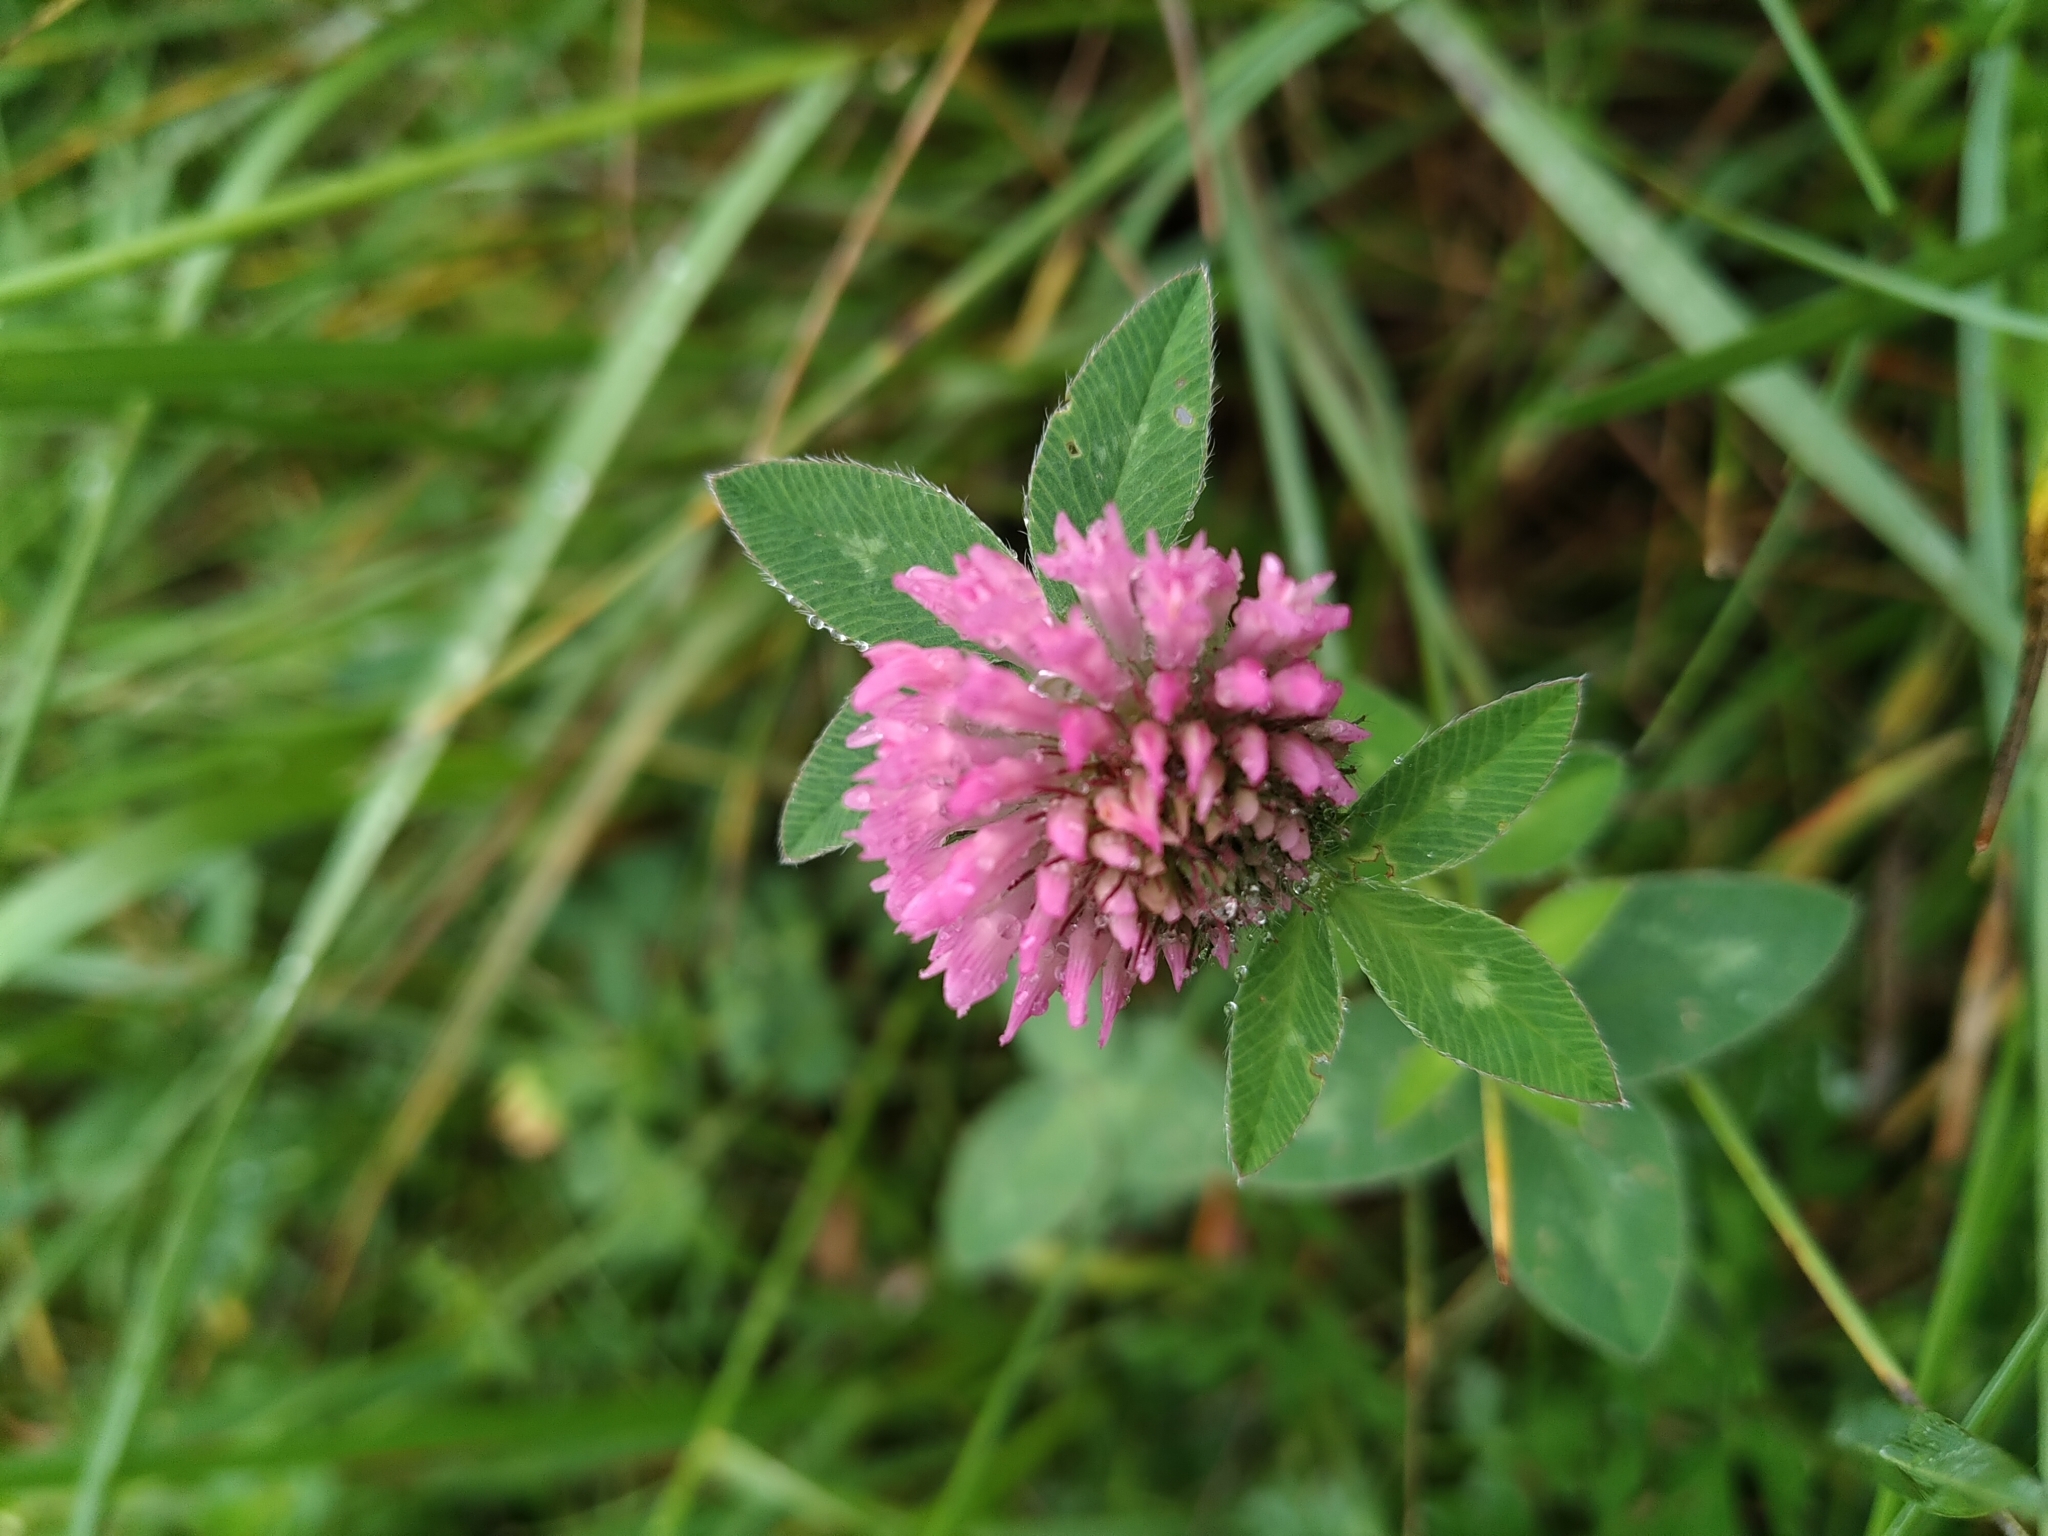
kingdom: Plantae
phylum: Tracheophyta
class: Magnoliopsida
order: Fabales
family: Fabaceae
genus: Trifolium
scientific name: Trifolium pratense
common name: Red clover
